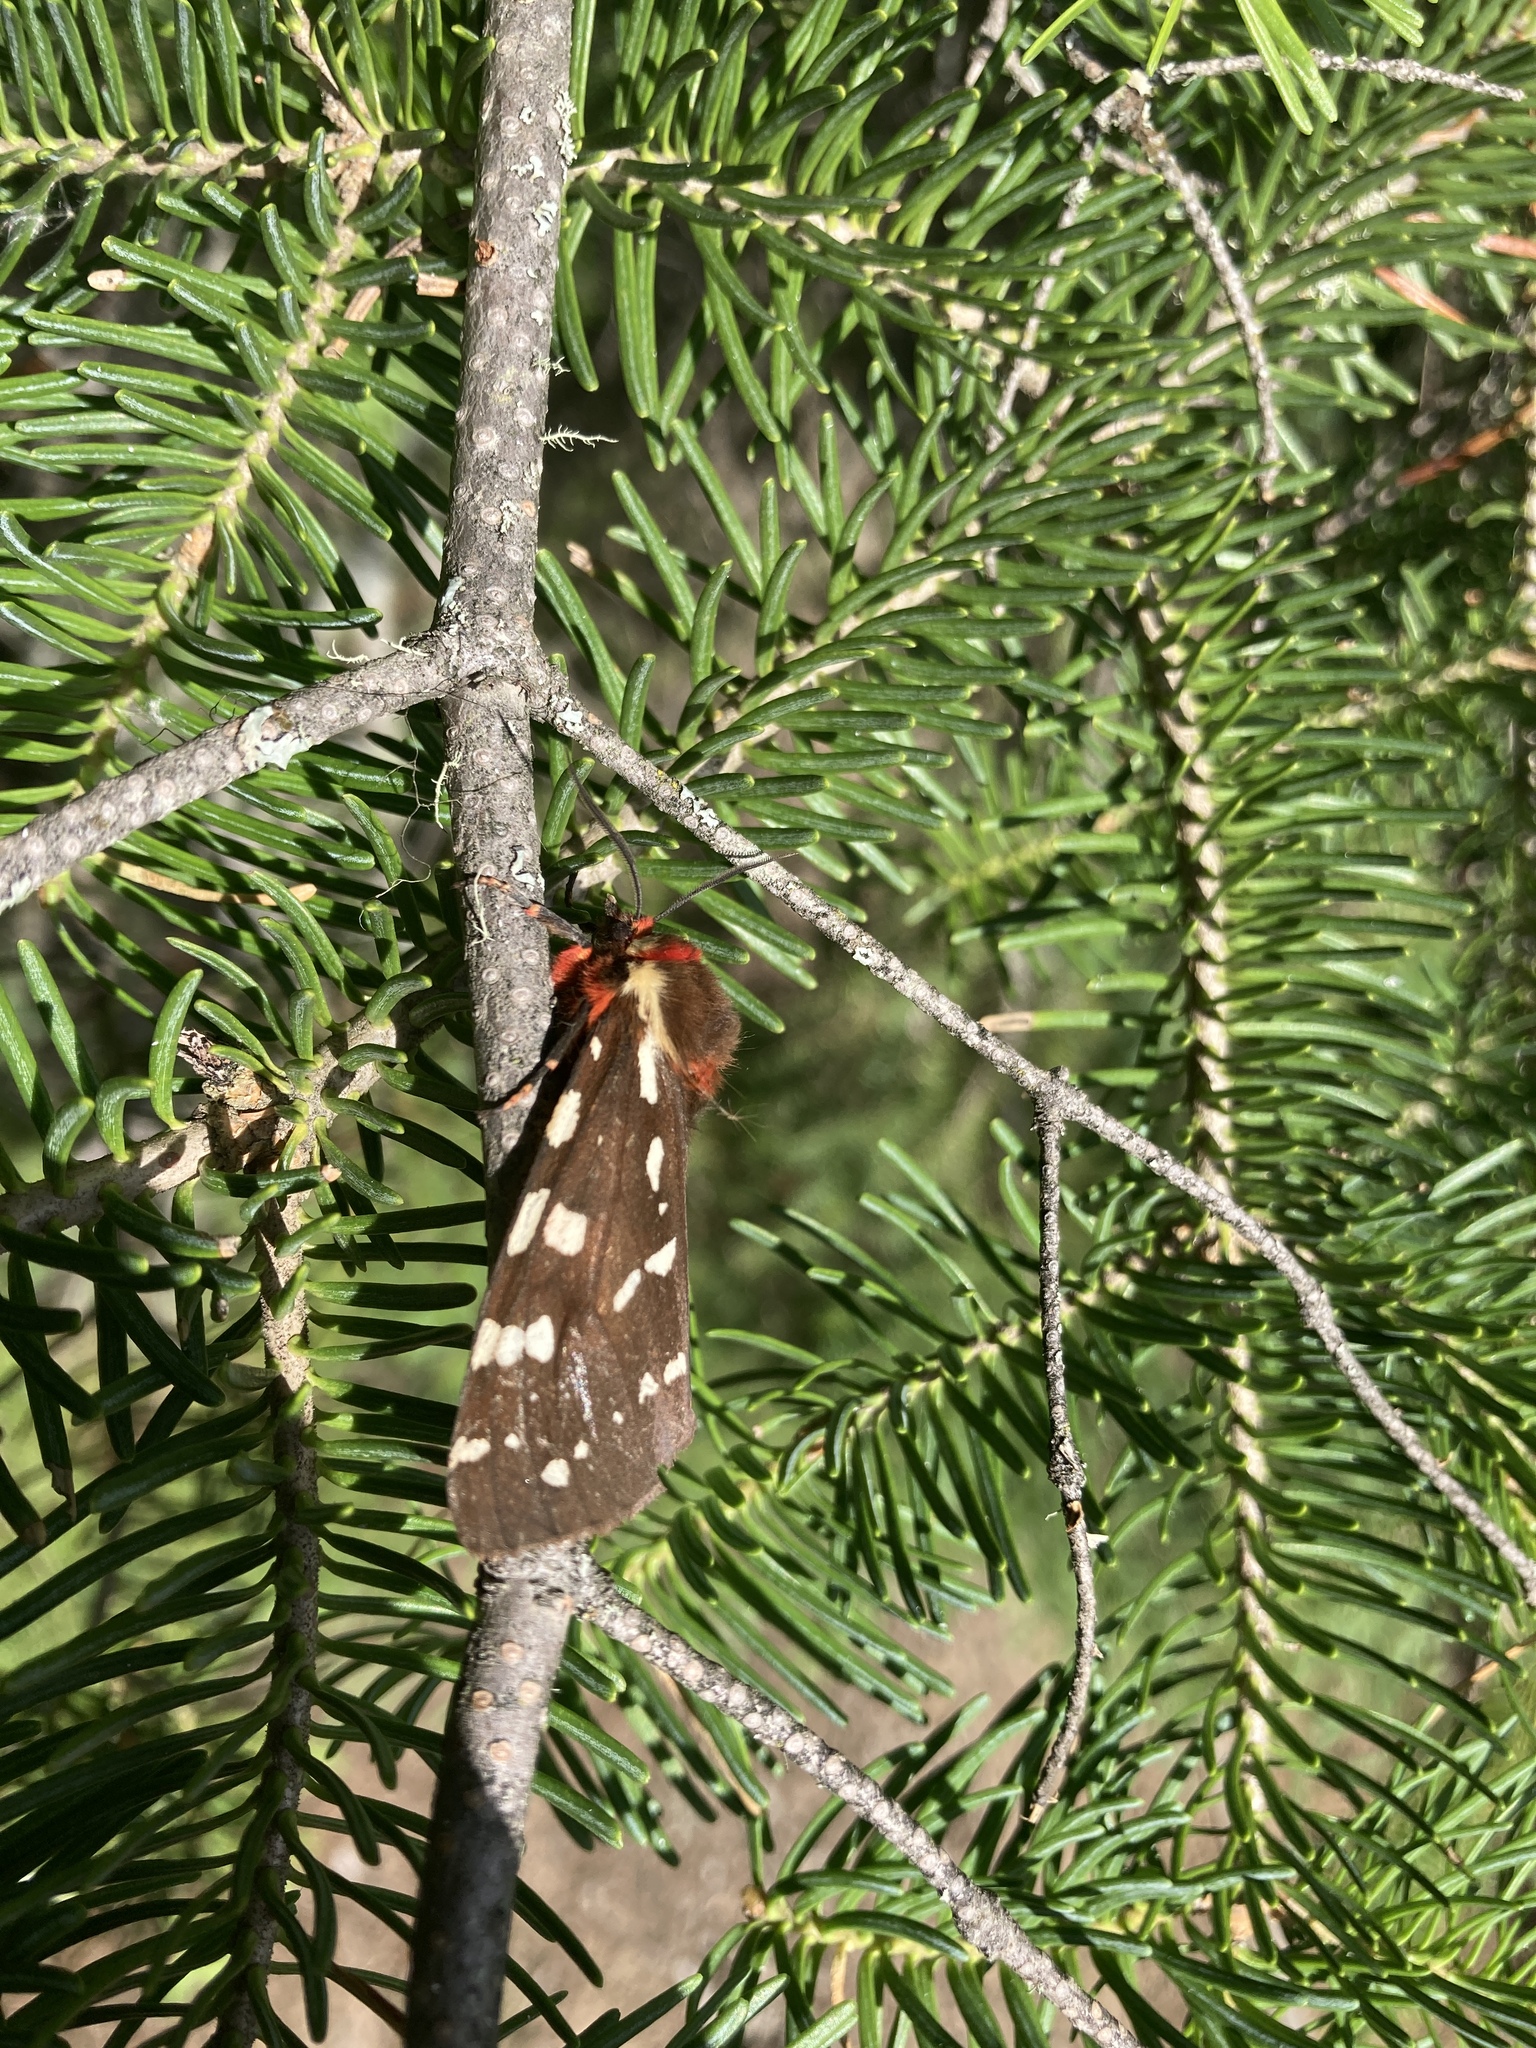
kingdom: Animalia
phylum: Arthropoda
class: Insecta
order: Lepidoptera
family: Erebidae
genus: Arctia
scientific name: Arctia parthenos
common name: St. lawrence tiger moth
